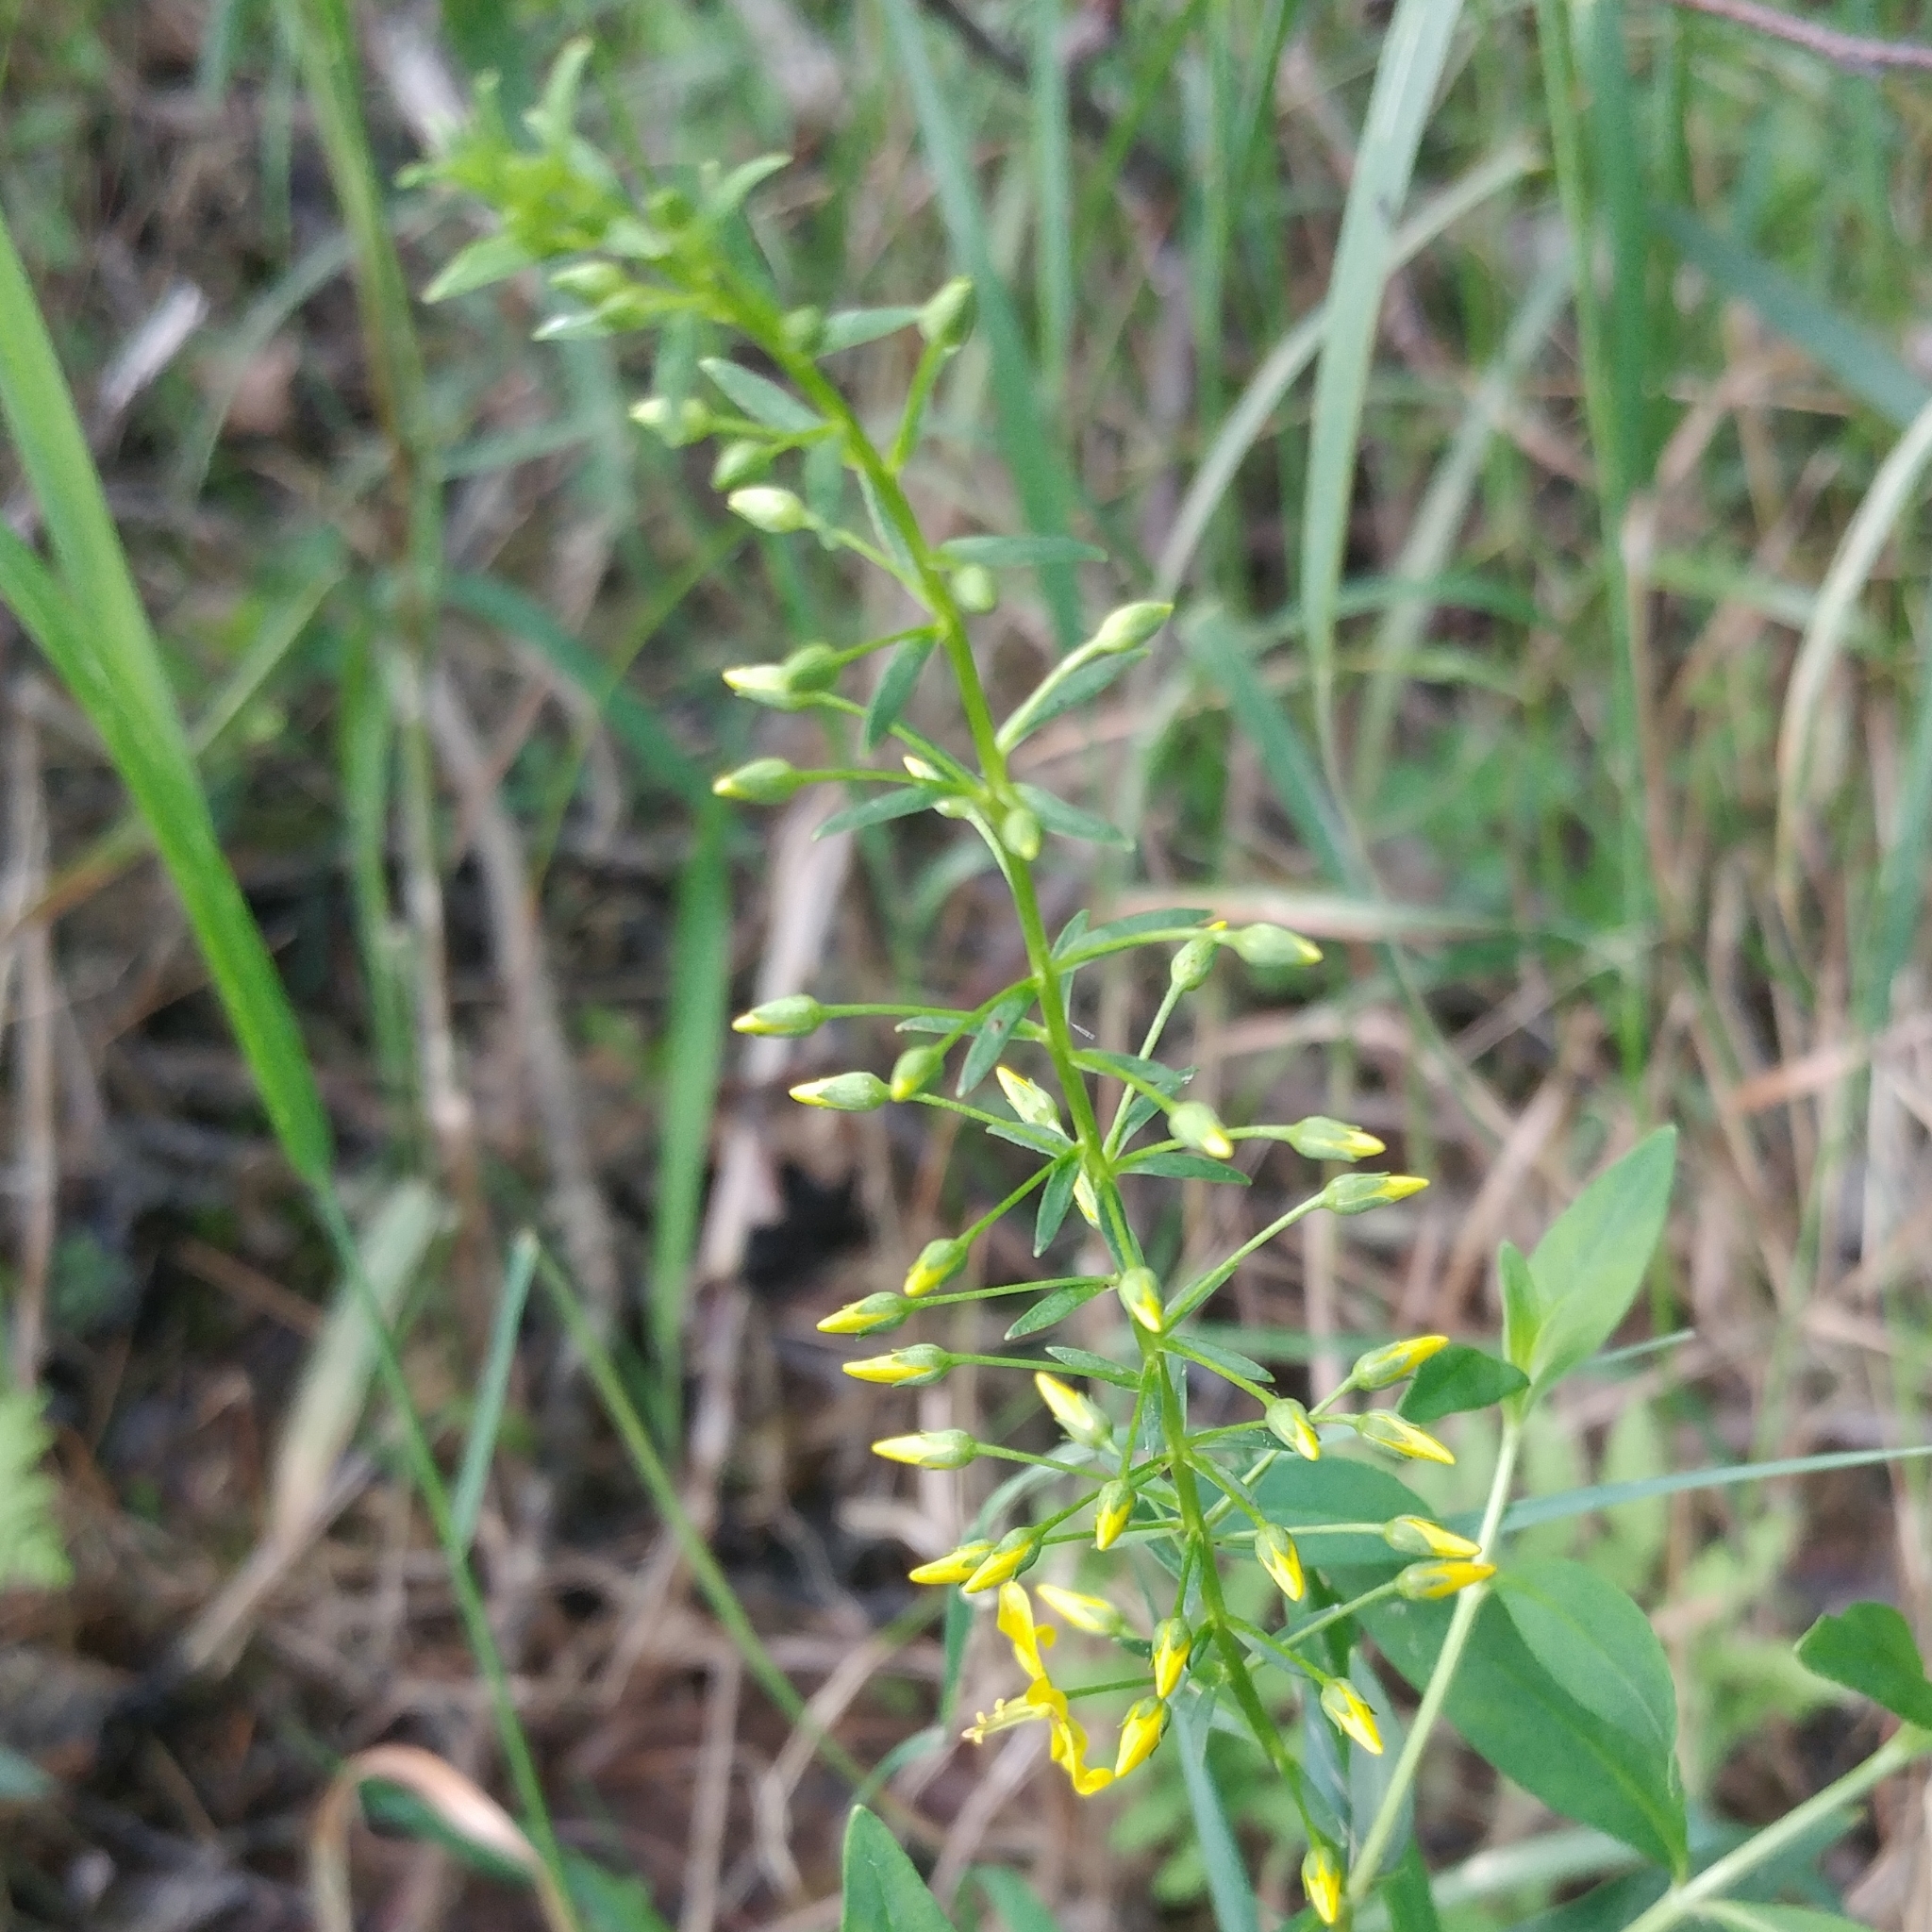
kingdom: Plantae
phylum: Tracheophyta
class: Magnoliopsida
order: Ericales
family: Primulaceae
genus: Lysimachia
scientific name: Lysimachia terrestris
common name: Lake loosestrife
